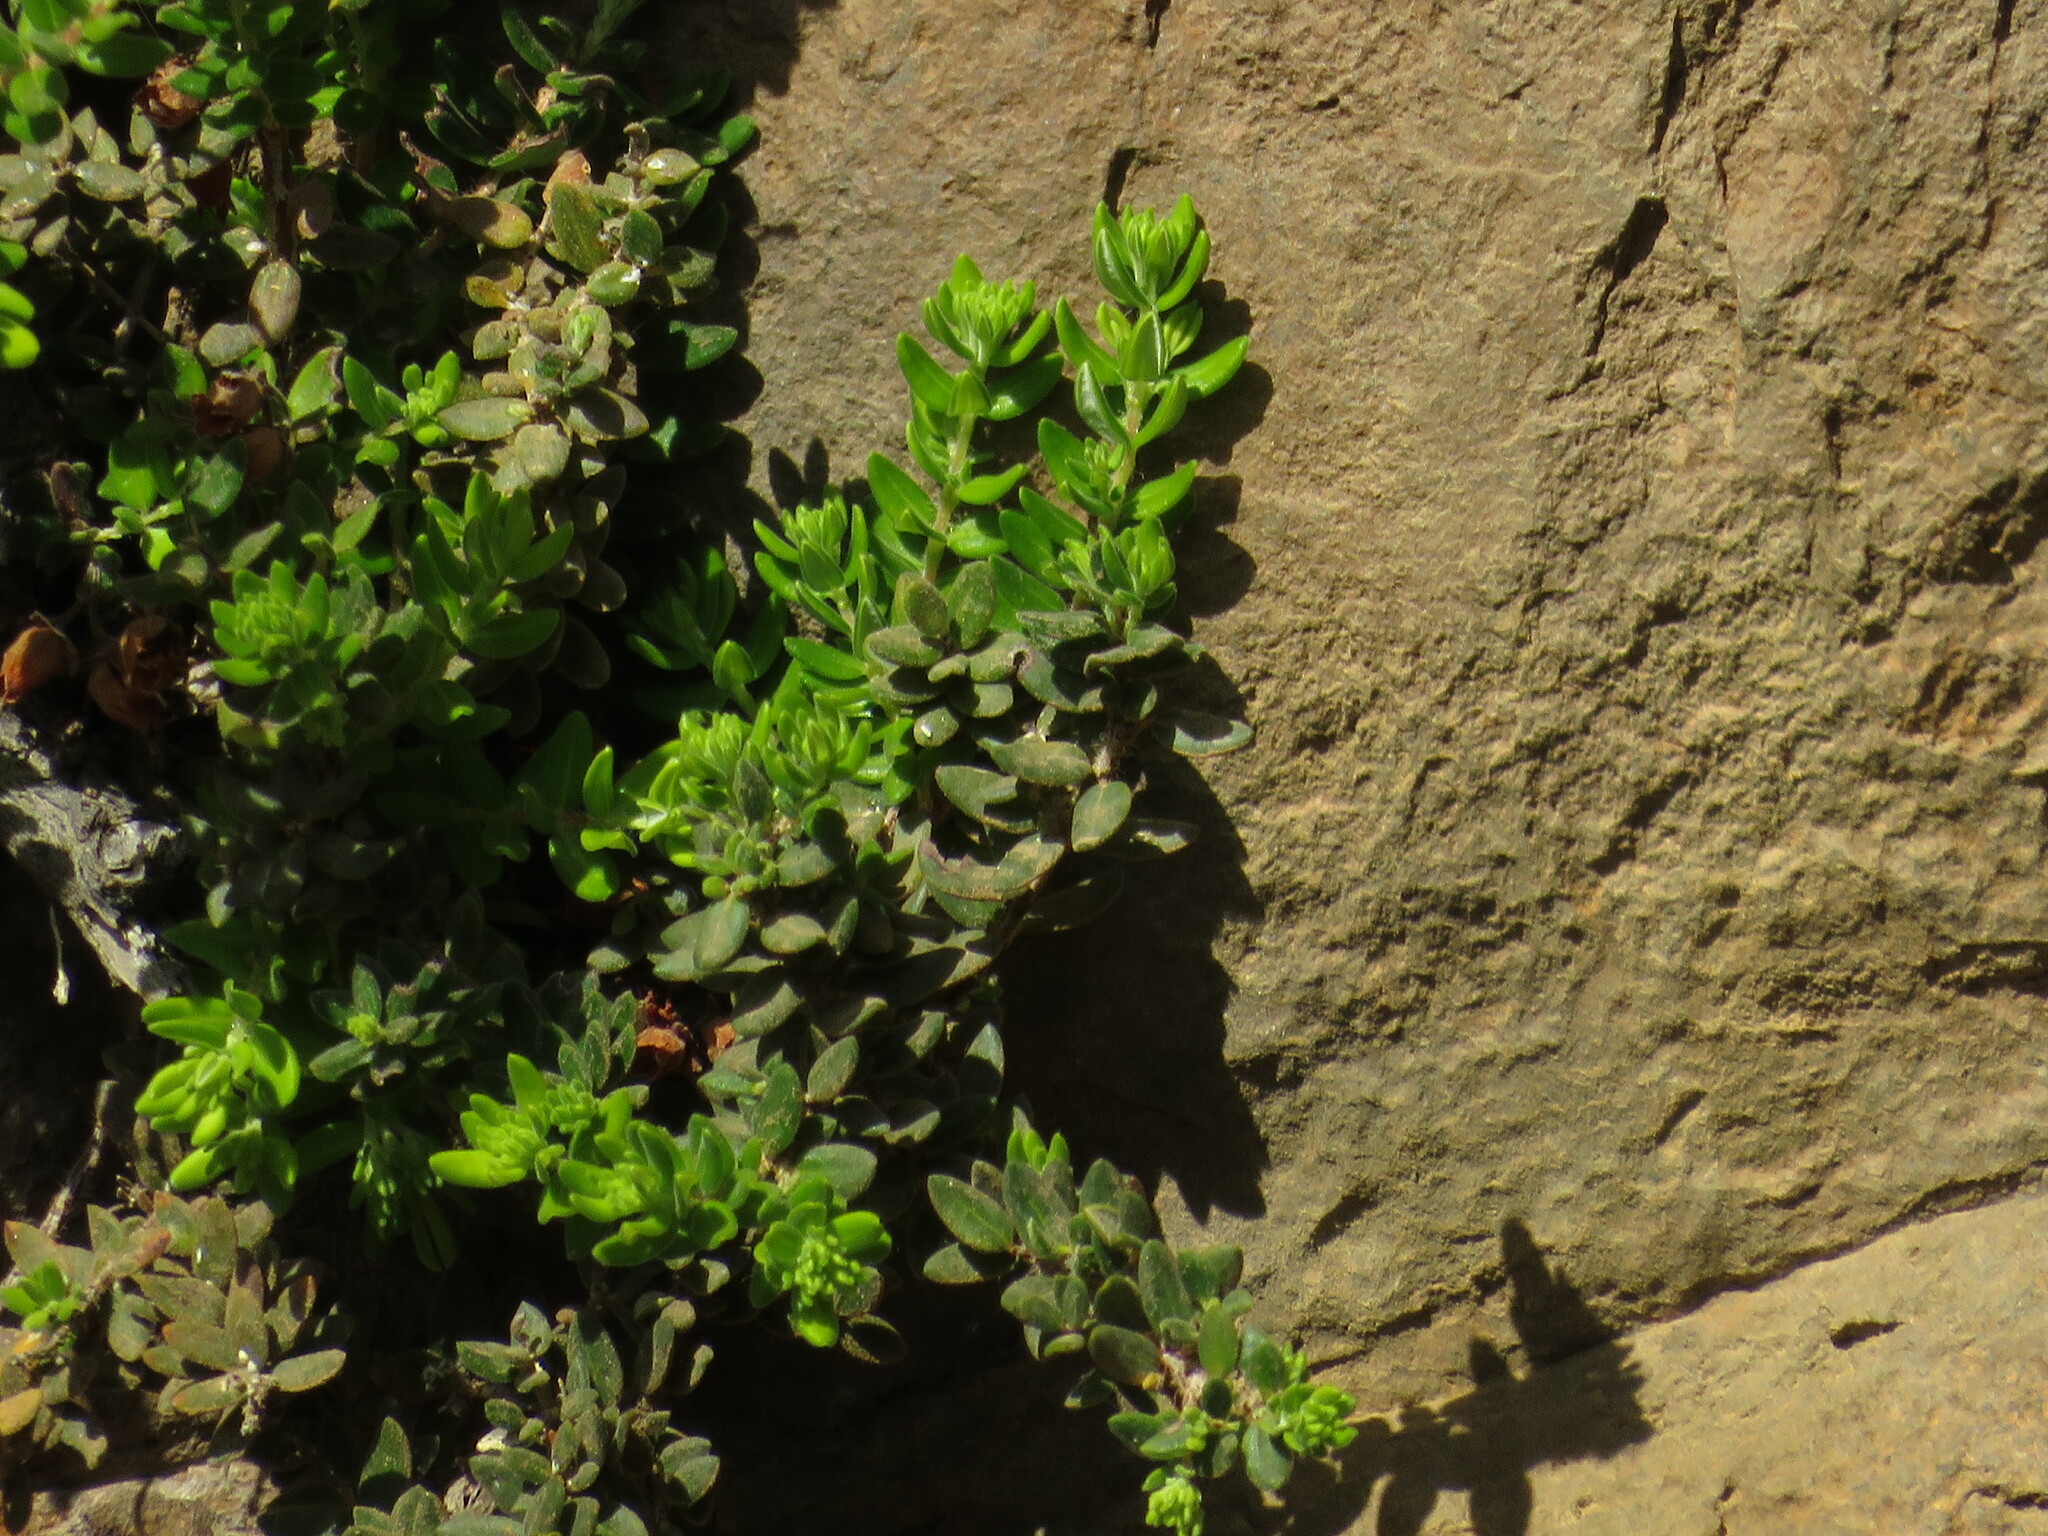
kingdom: Plantae
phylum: Tracheophyta
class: Magnoliopsida
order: Ericales
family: Ericaceae
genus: Erica
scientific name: Erica marifolia
